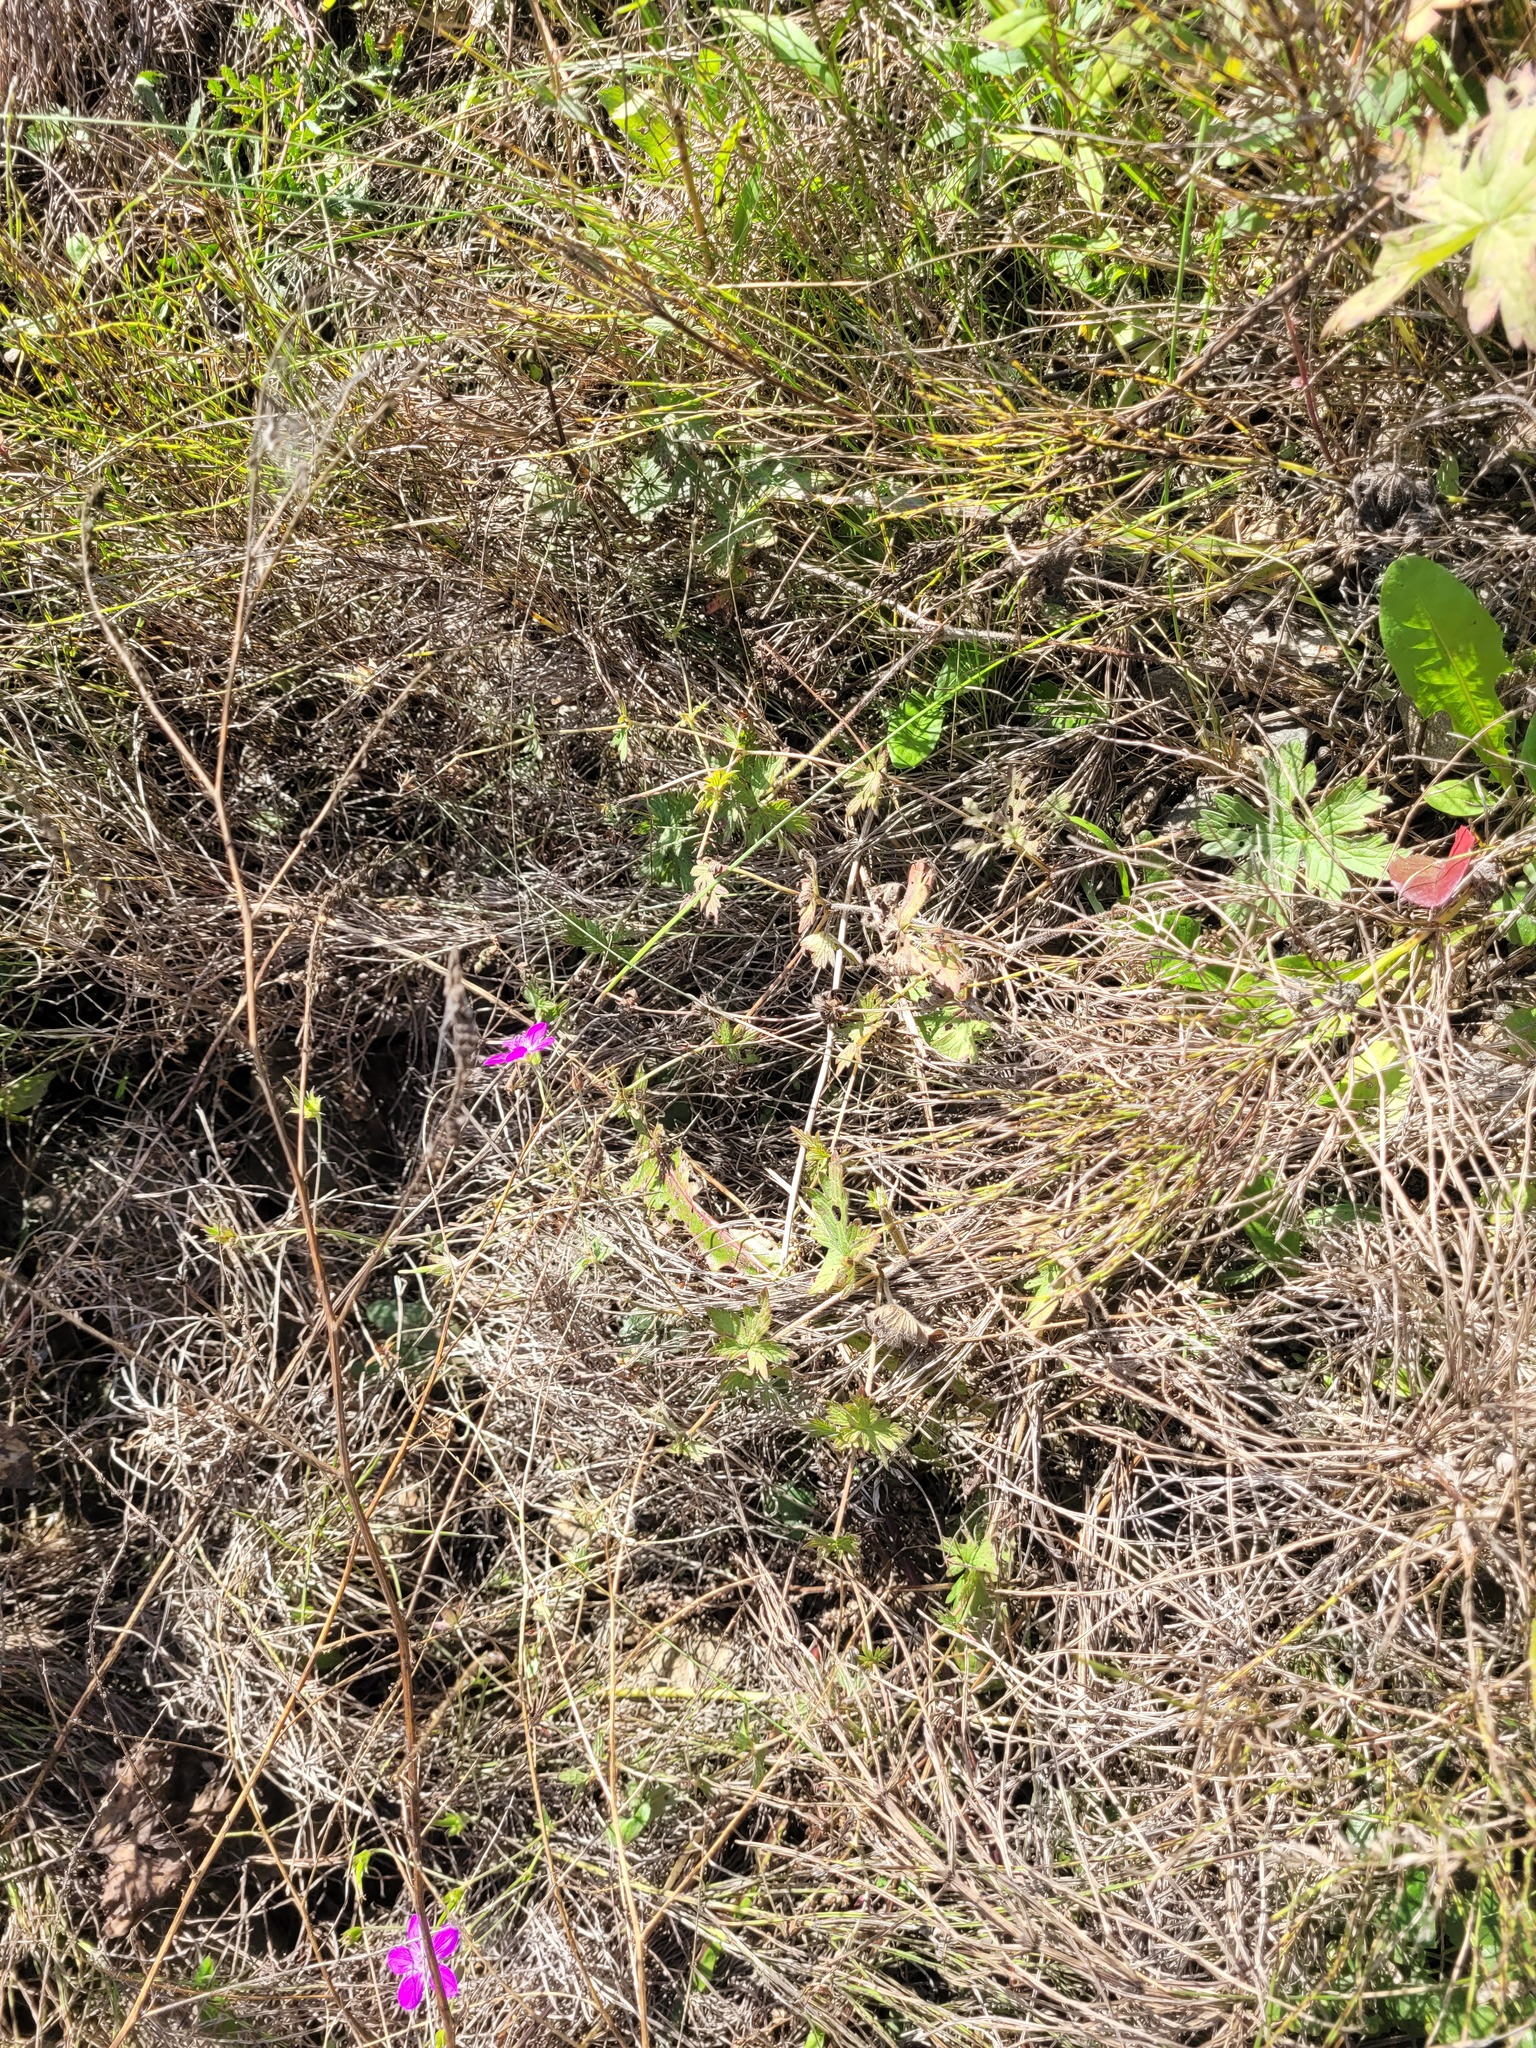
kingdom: Plantae
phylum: Tracheophyta
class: Magnoliopsida
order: Geraniales
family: Geraniaceae
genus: Geranium
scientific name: Geranium palustre
